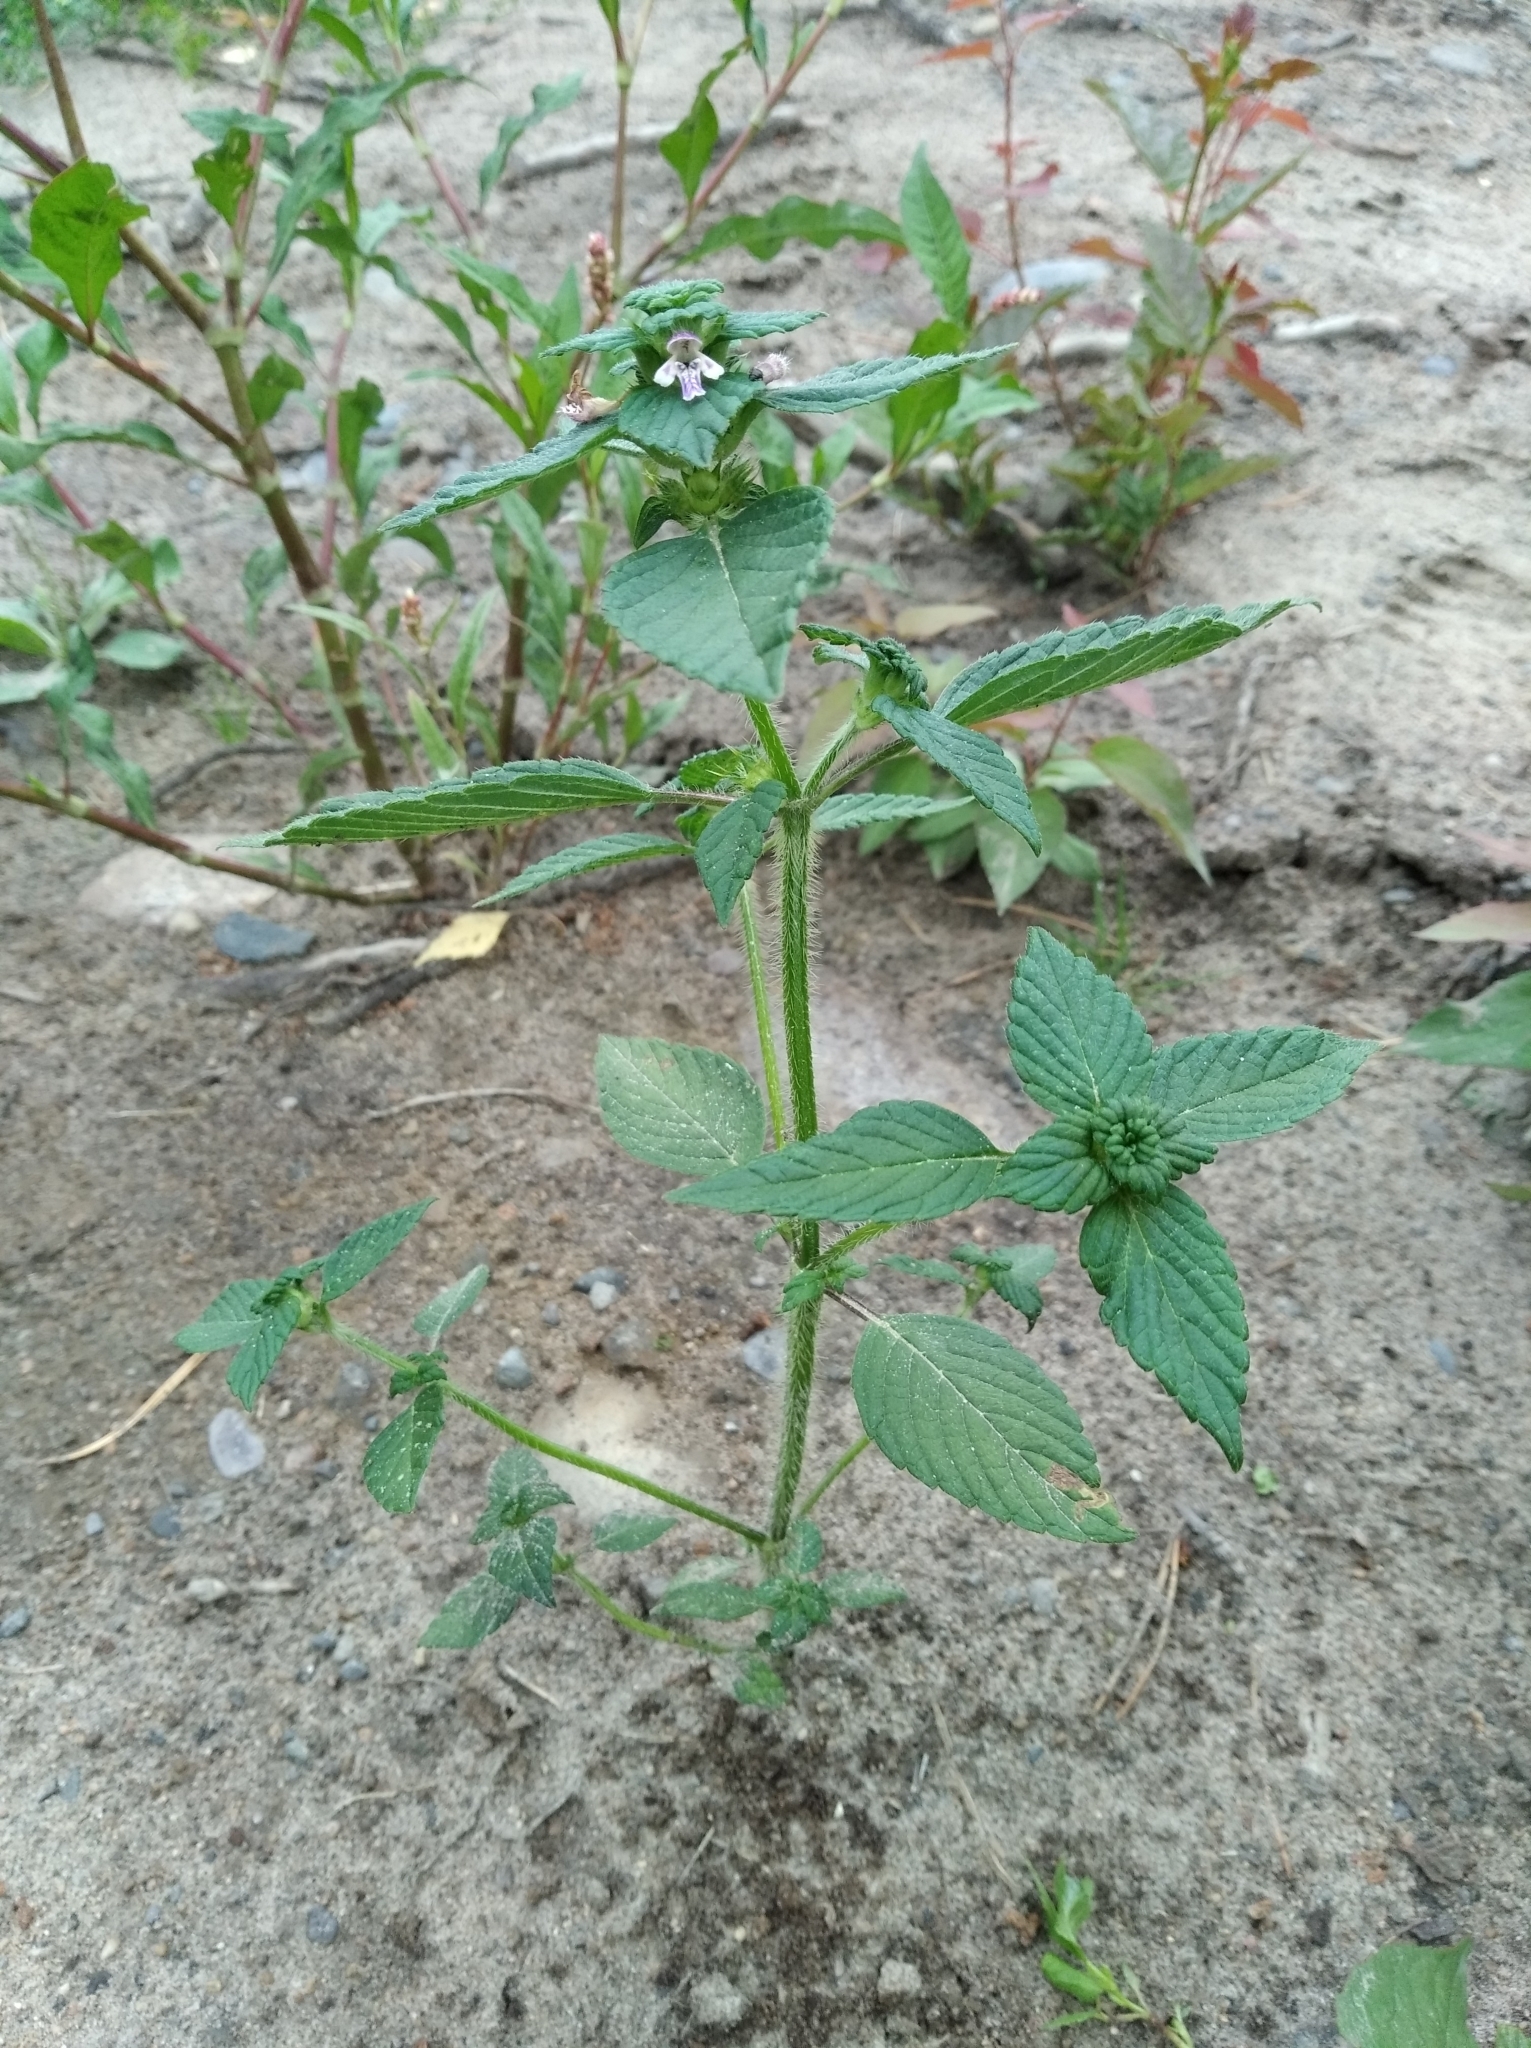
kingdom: Plantae
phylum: Tracheophyta
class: Magnoliopsida
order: Lamiales
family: Lamiaceae
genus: Galeopsis
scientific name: Galeopsis bifida
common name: Bifid hemp-nettle
